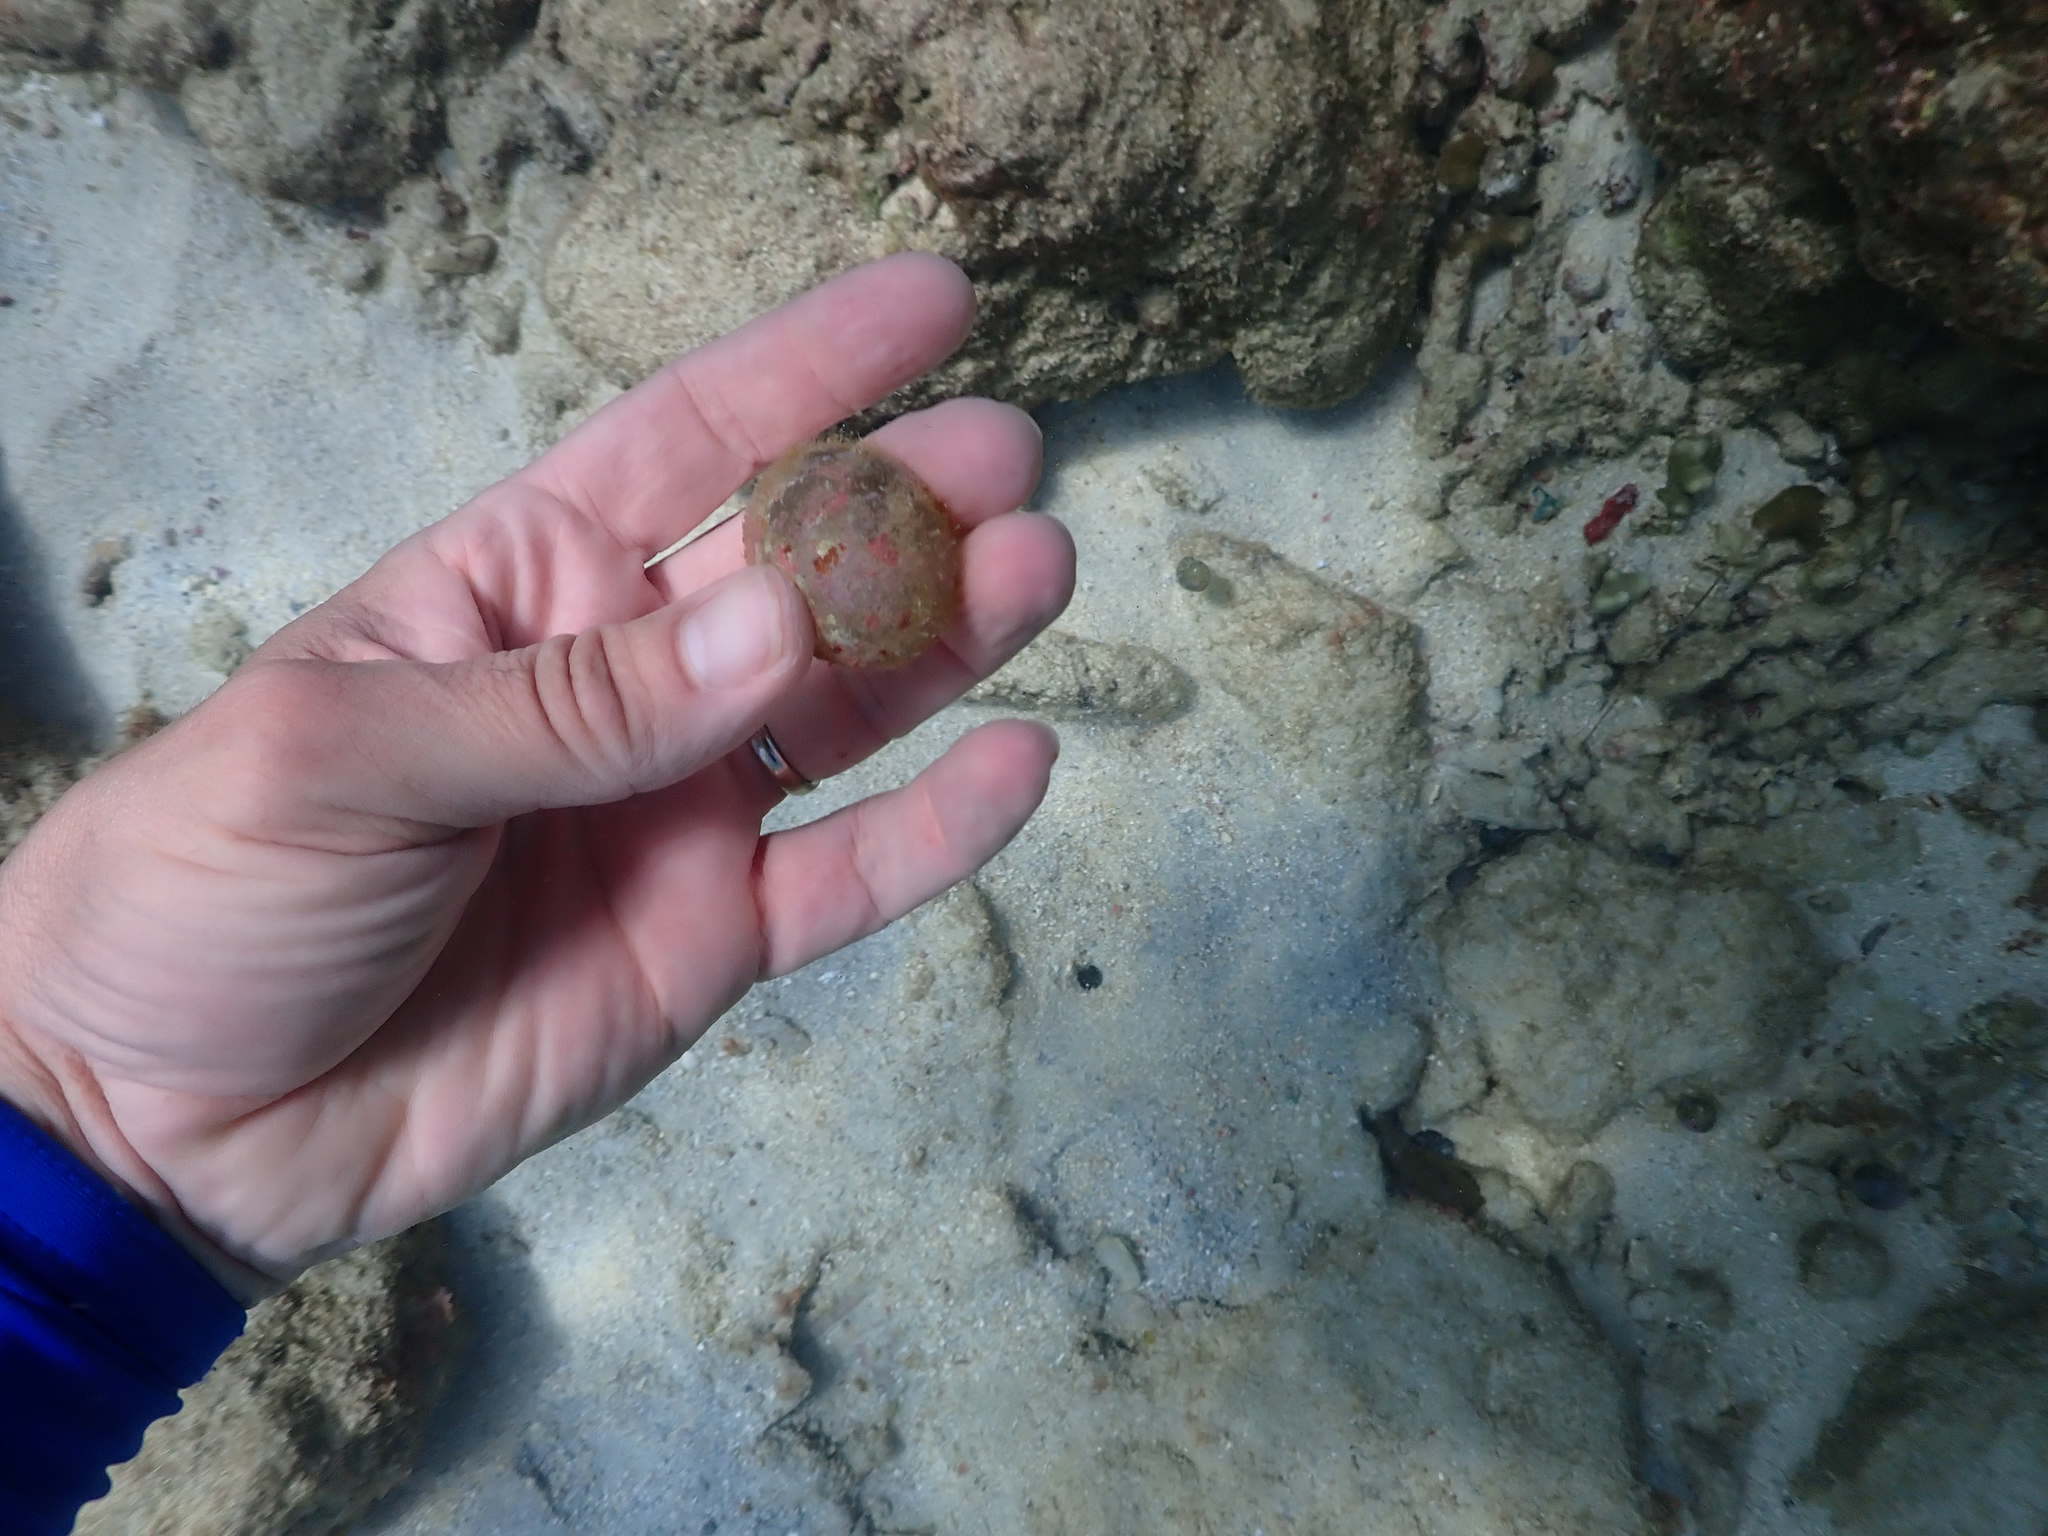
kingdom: Plantae
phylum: Chlorophyta
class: Ulvophyceae
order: Siphonocladales
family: Valoniaceae
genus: Valonia
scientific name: Valonia ventricosa
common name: Sea pearl
